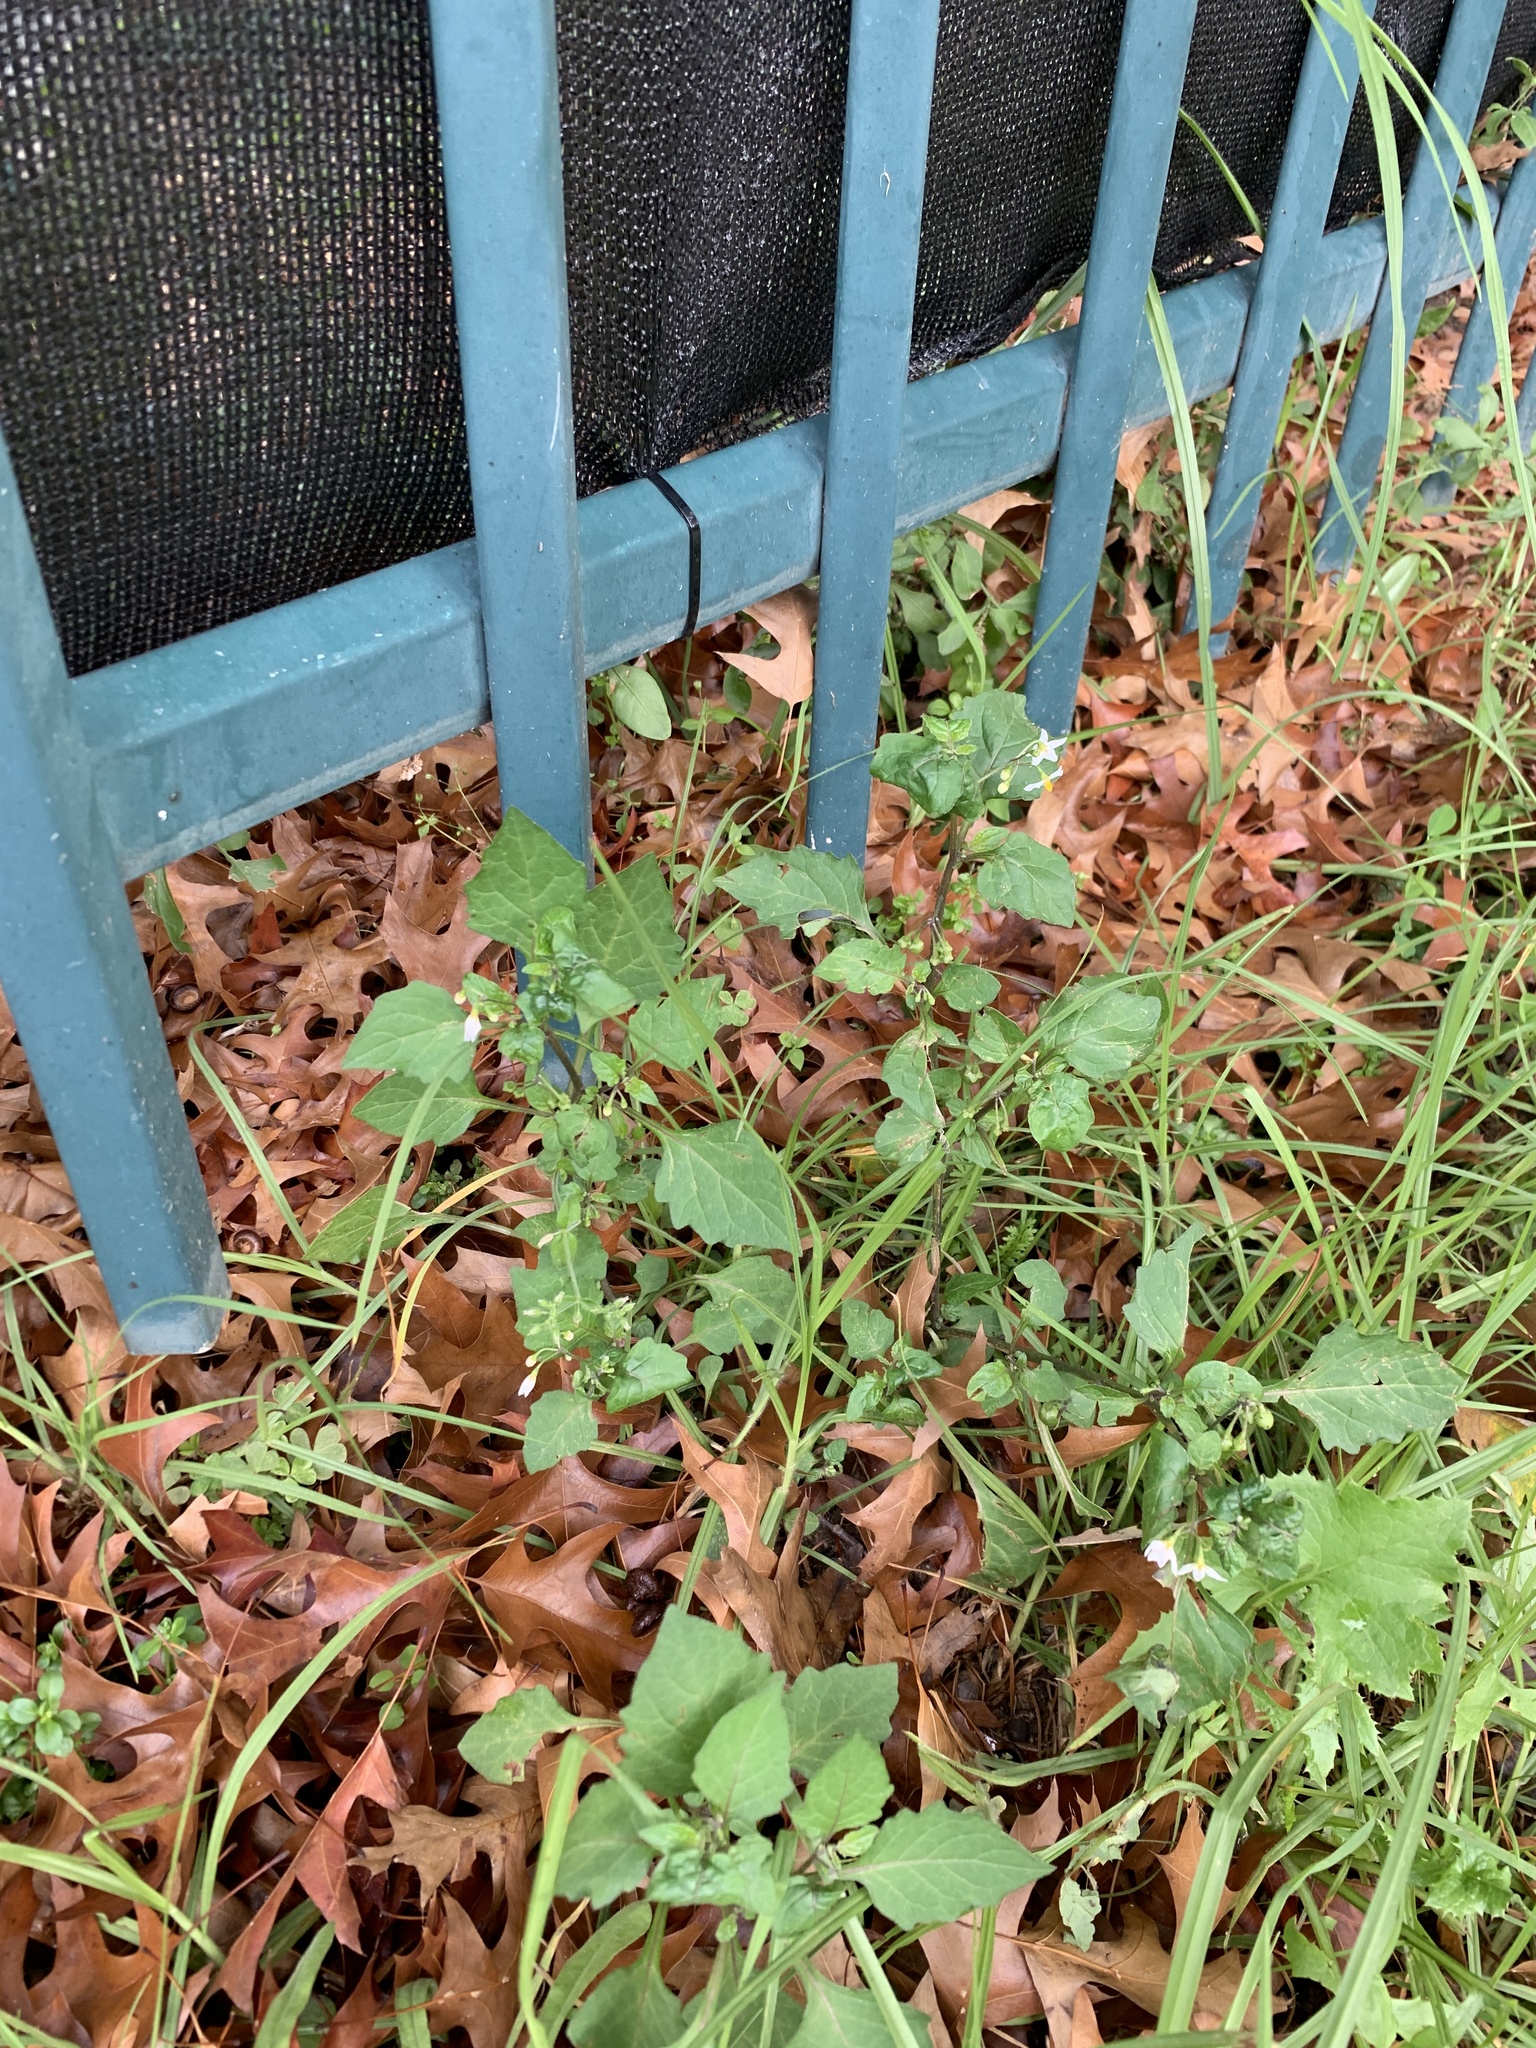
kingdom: Plantae
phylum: Tracheophyta
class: Magnoliopsida
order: Solanales
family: Solanaceae
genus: Solanum
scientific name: Solanum nigrum
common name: Black nightshade
